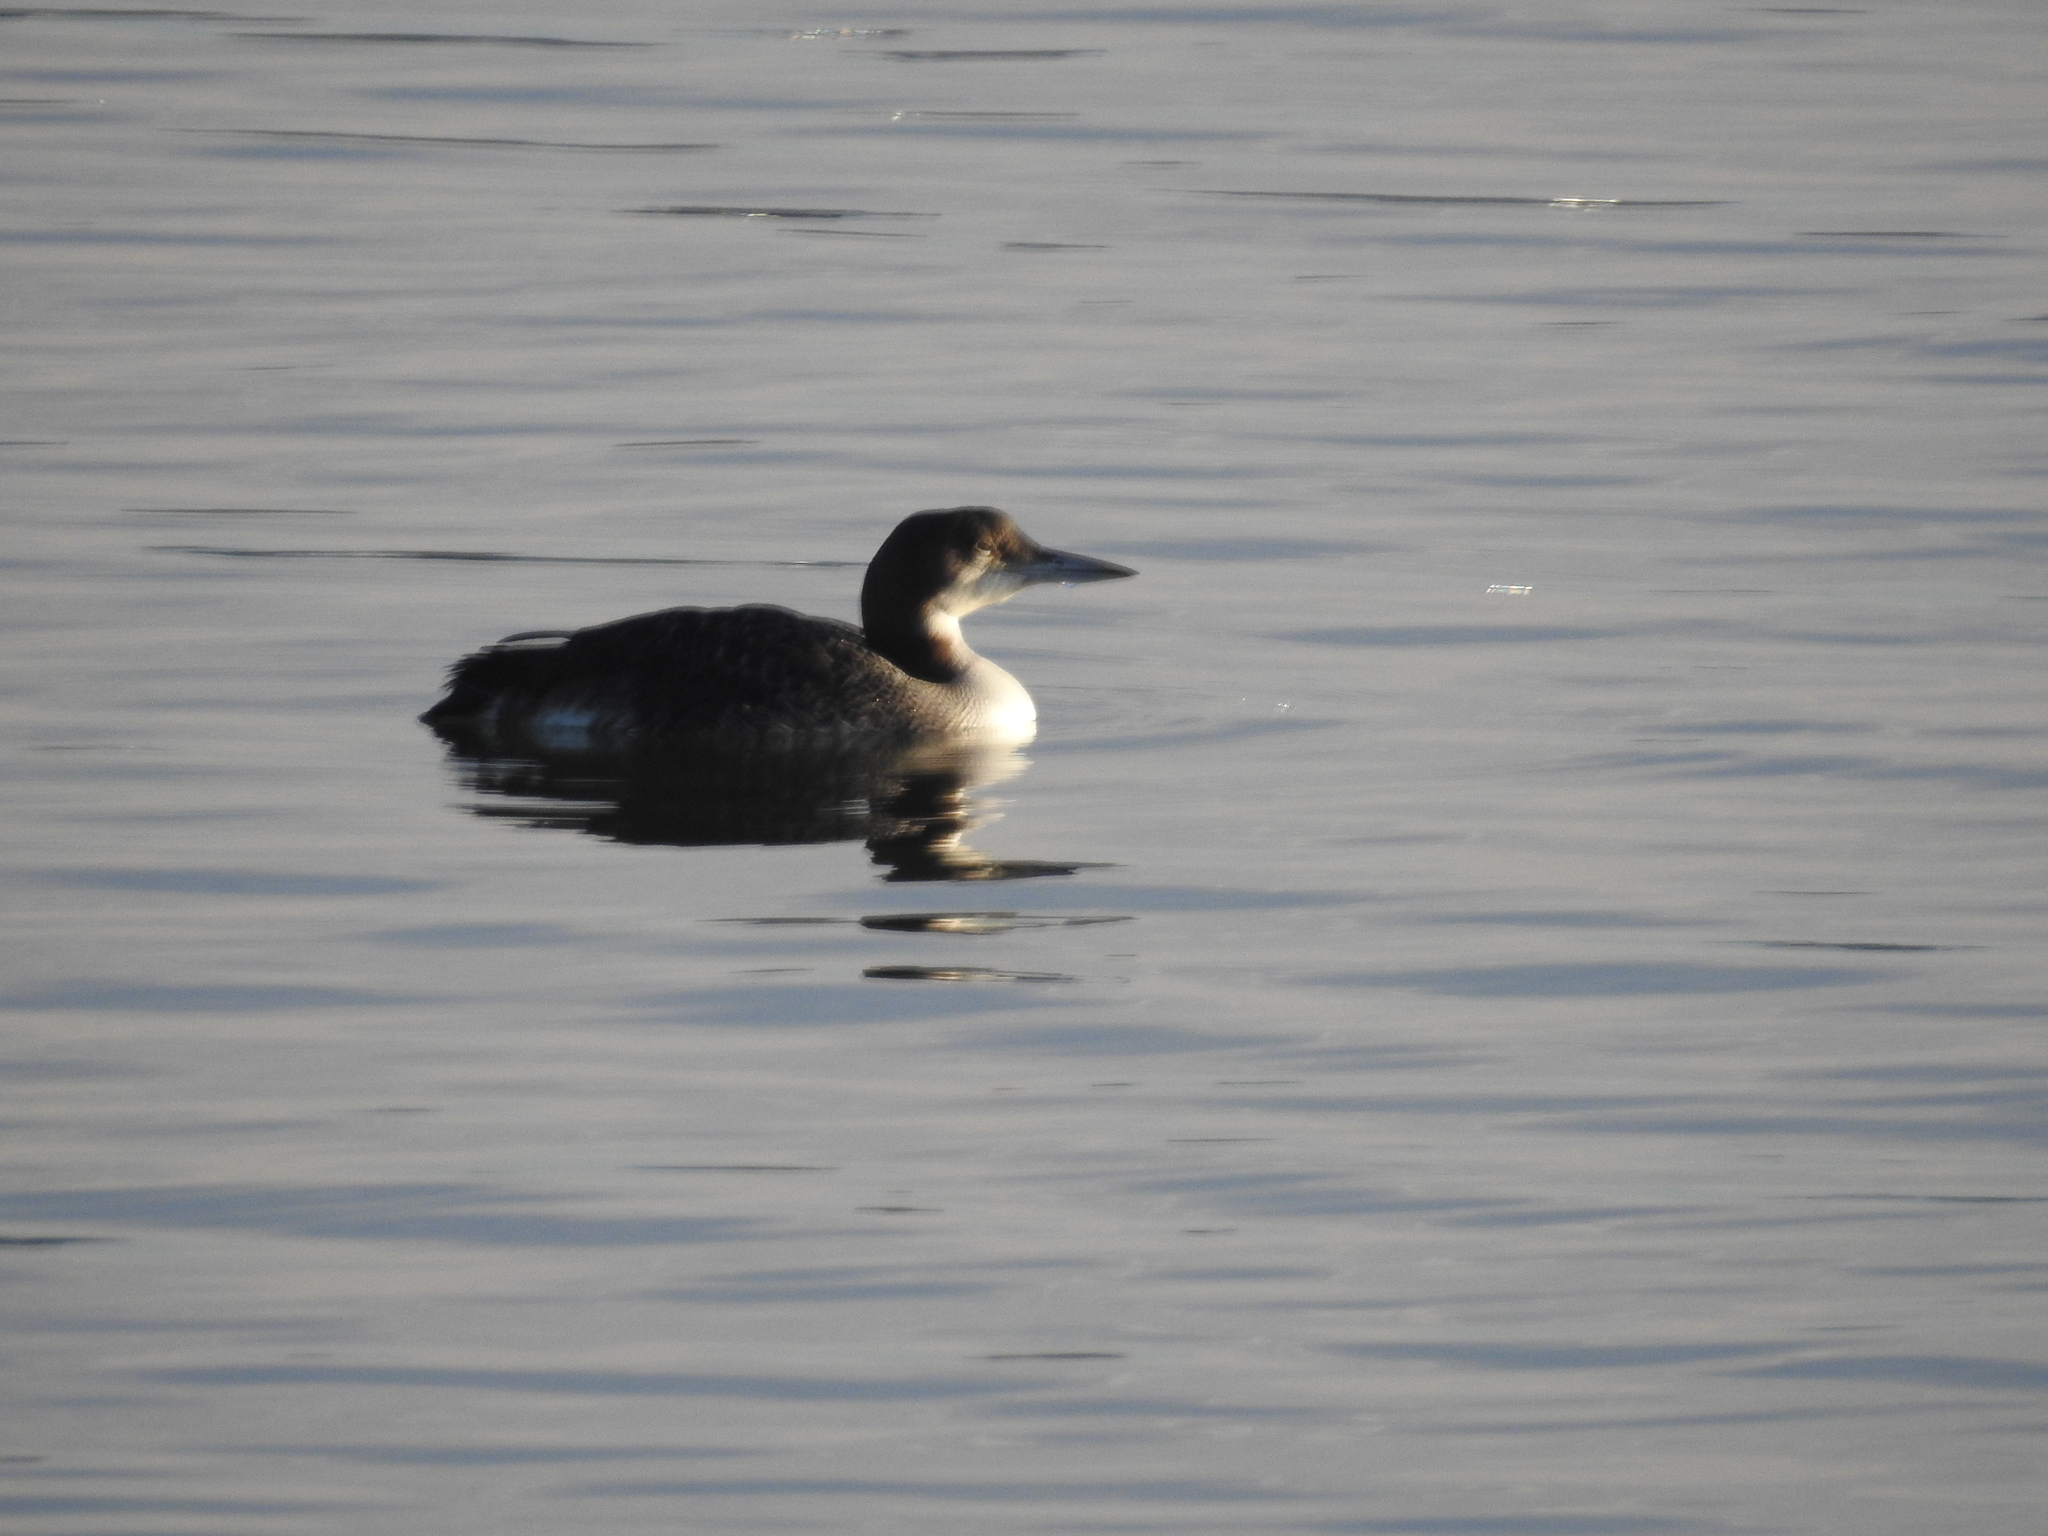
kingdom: Animalia
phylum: Chordata
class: Aves
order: Gaviiformes
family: Gaviidae
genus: Gavia
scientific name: Gavia immer
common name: Common loon
